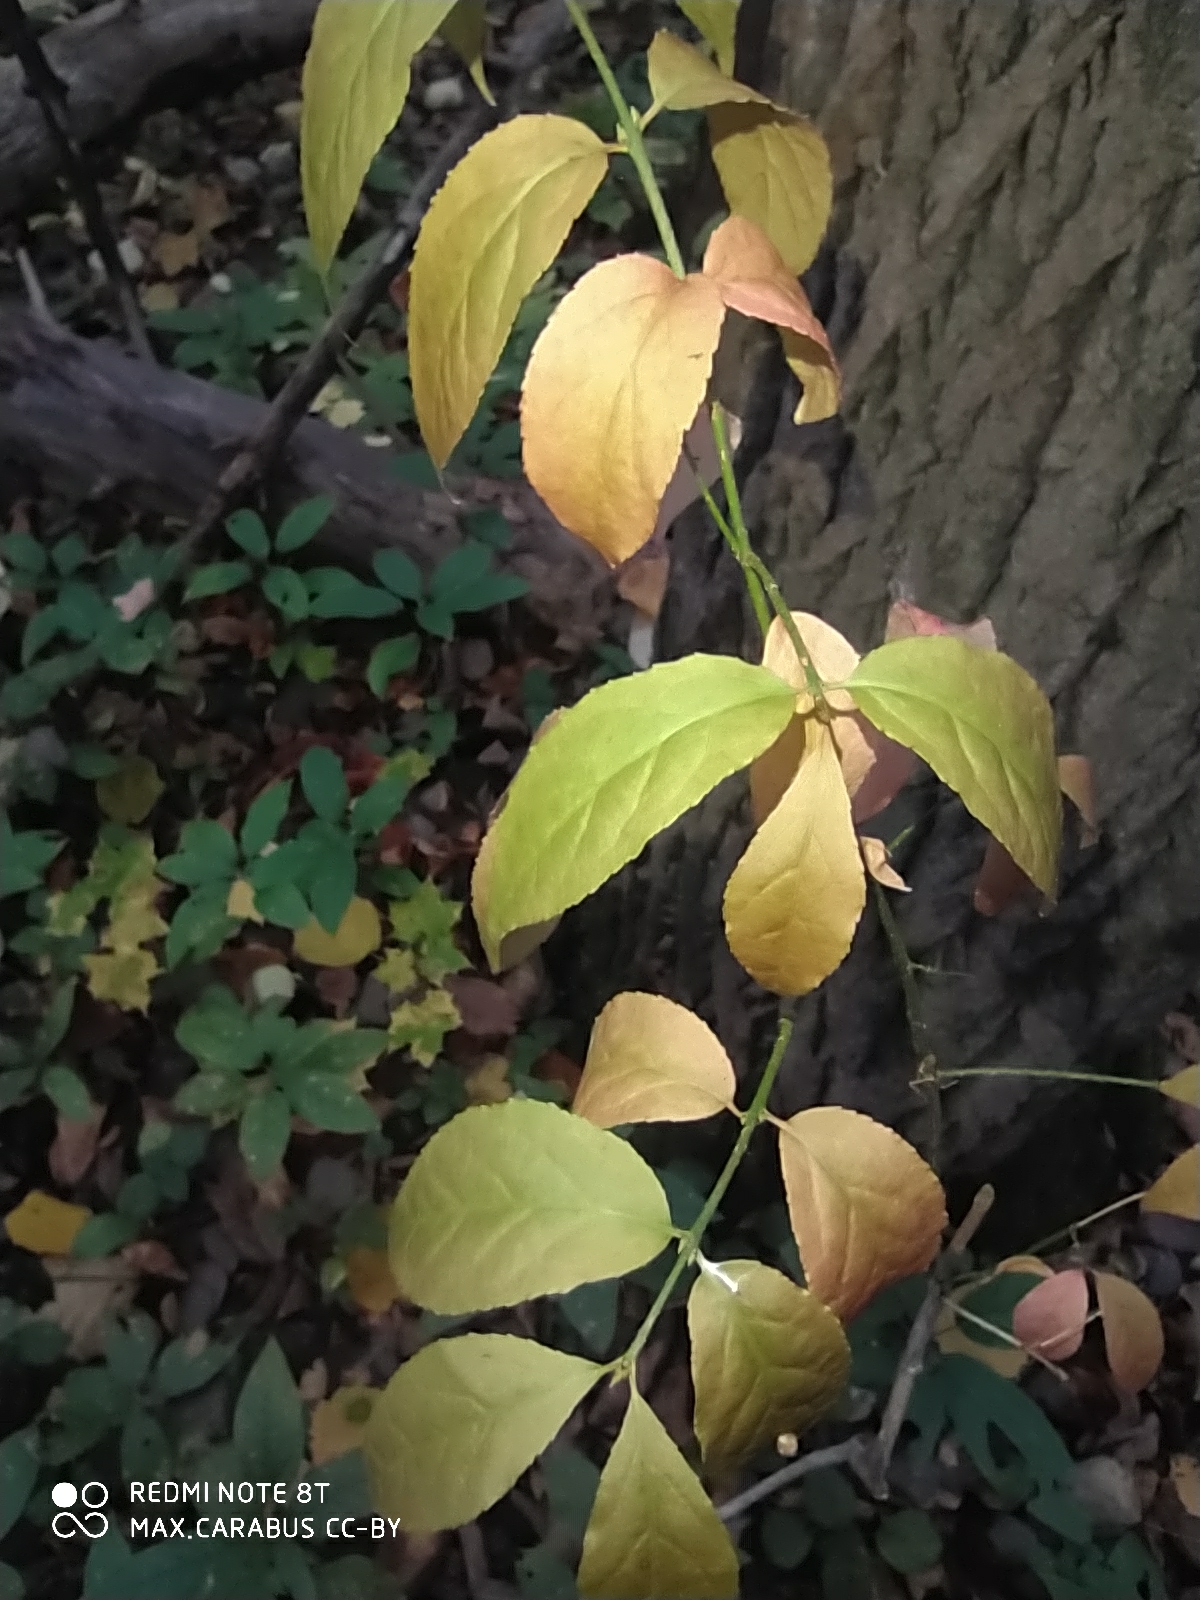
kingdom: Plantae
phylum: Tracheophyta
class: Magnoliopsida
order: Celastrales
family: Celastraceae
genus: Euonymus
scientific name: Euonymus verrucosus
